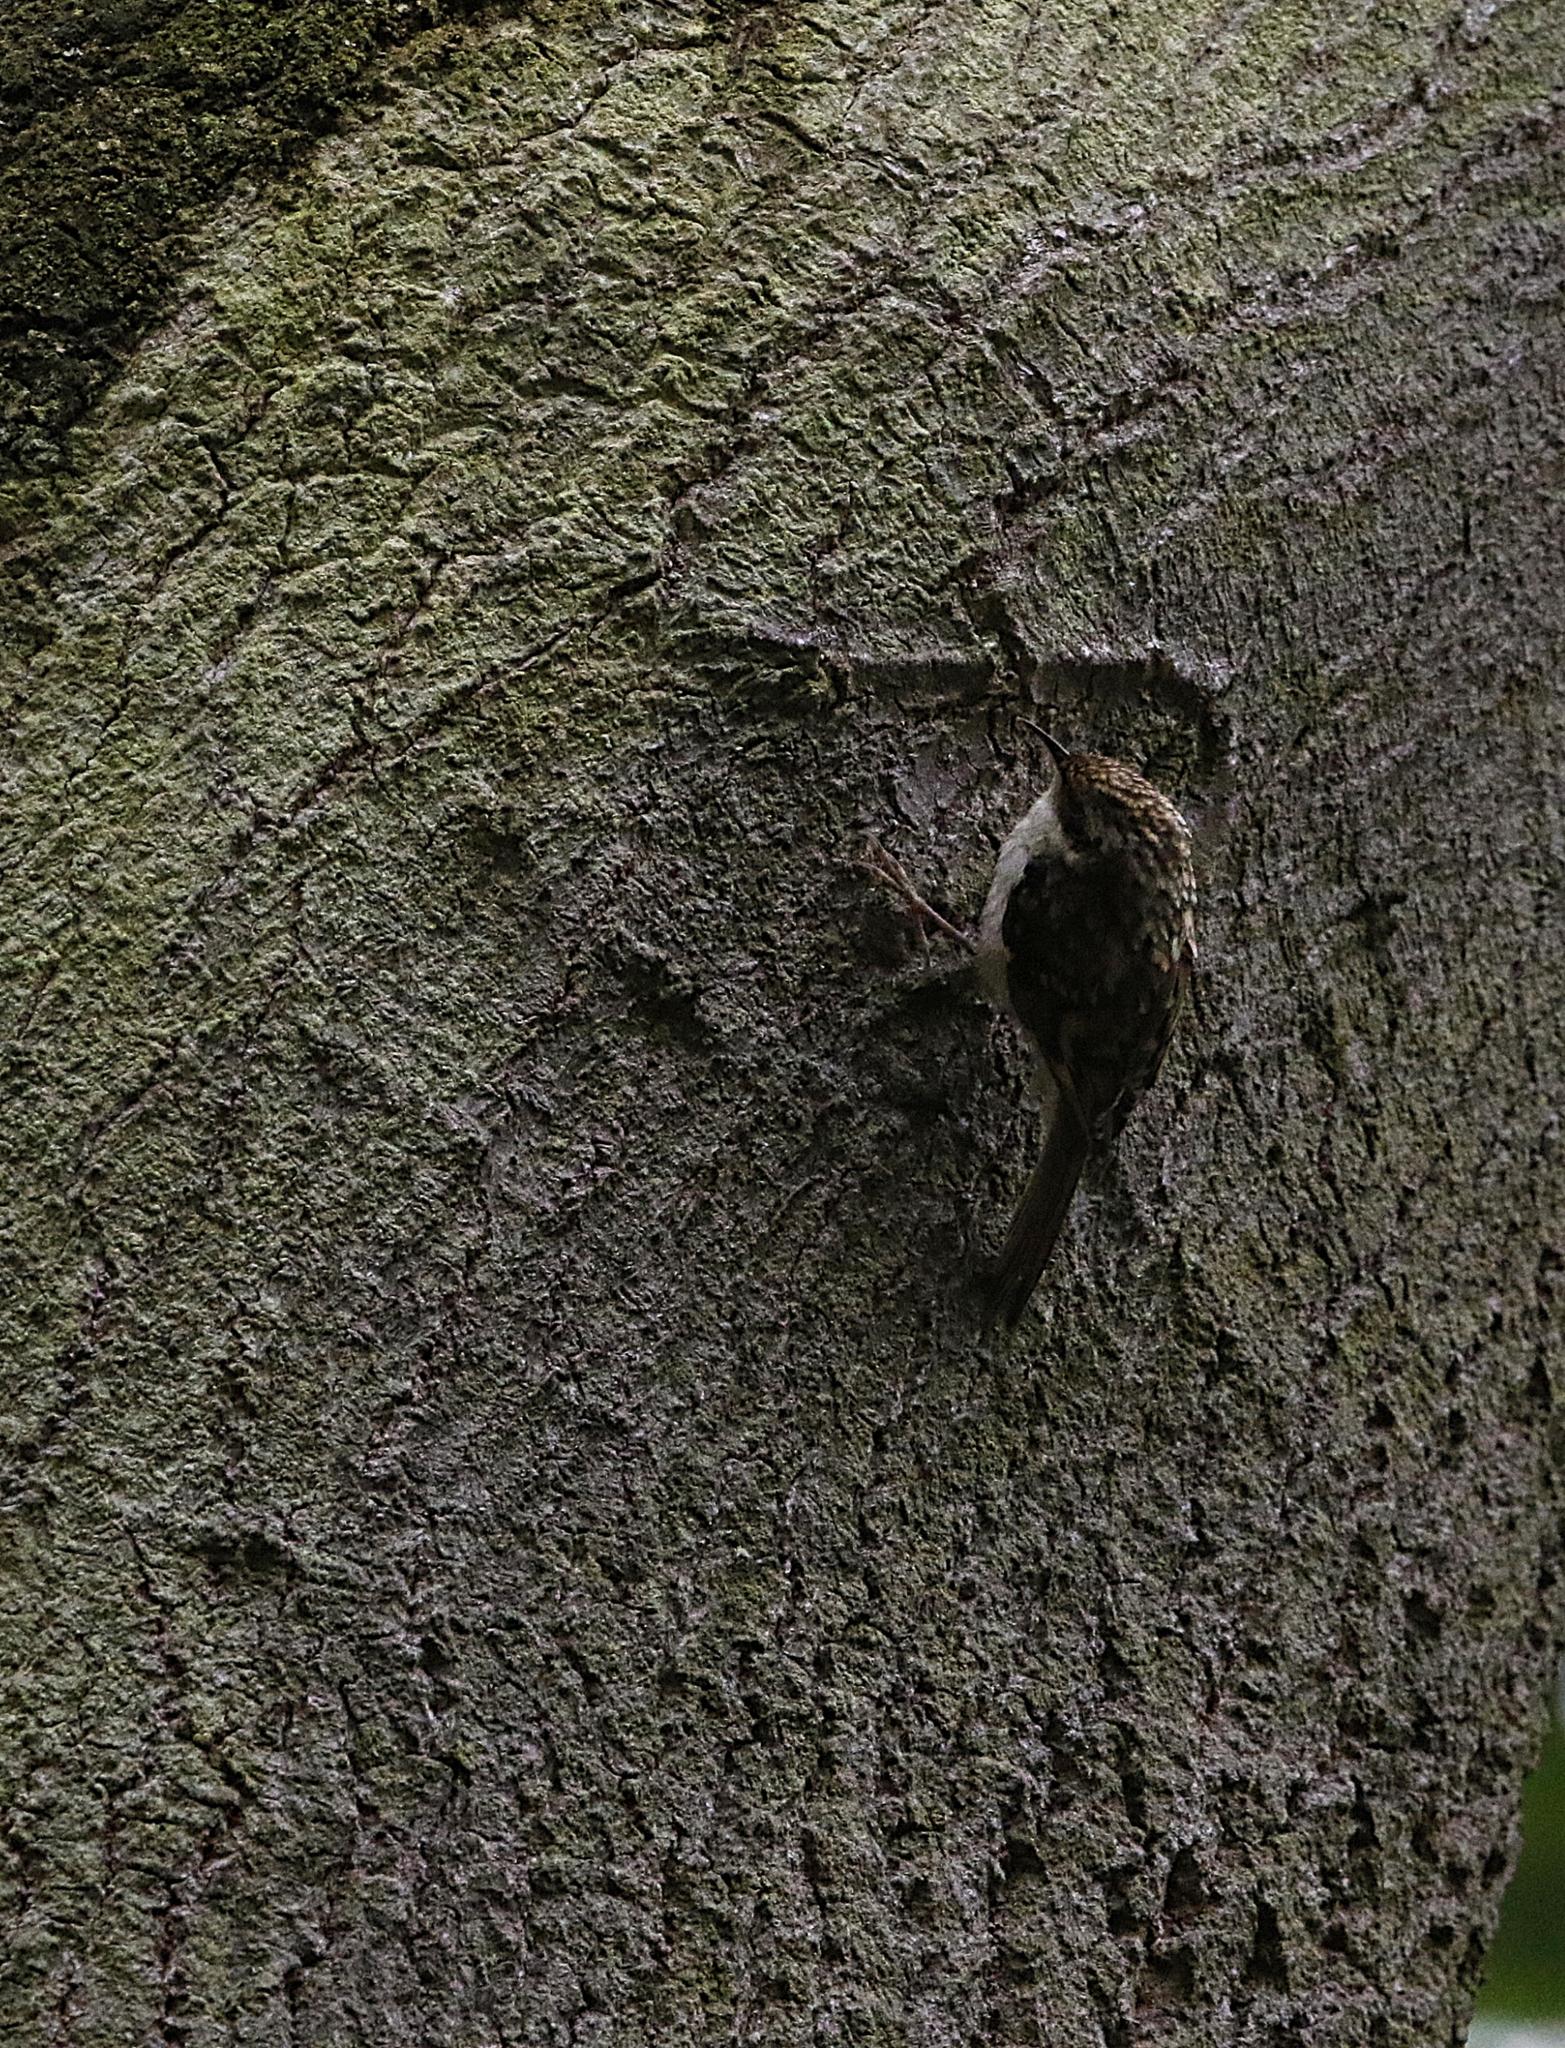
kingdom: Animalia
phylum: Chordata
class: Aves
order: Passeriformes
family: Certhiidae
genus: Certhia
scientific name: Certhia familiaris
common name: Eurasian treecreeper
